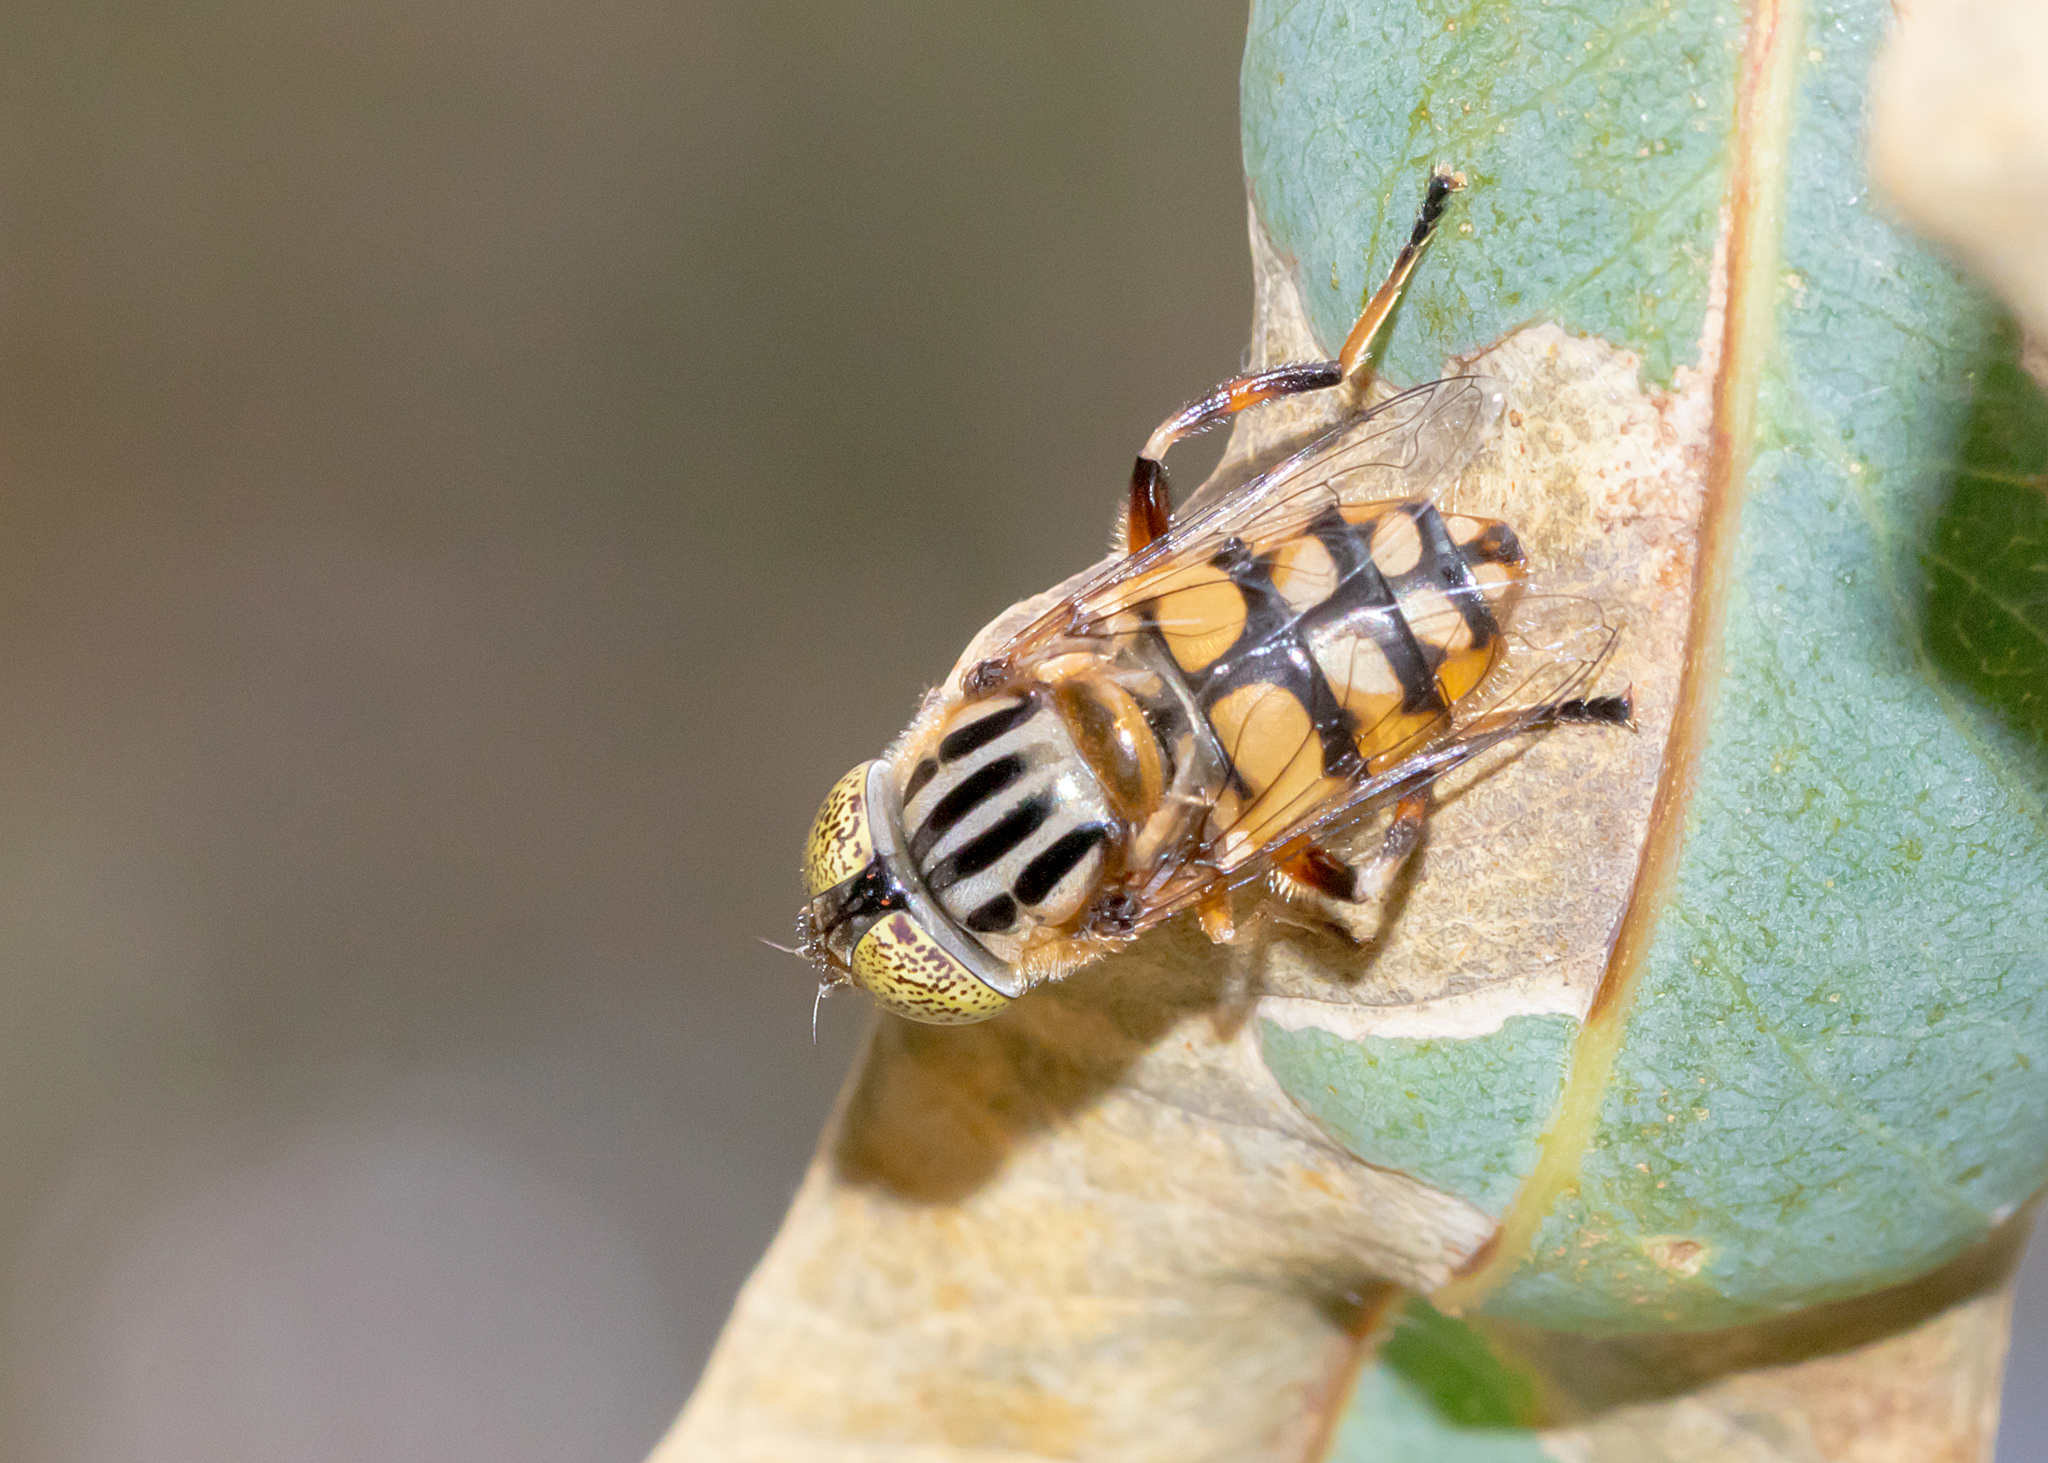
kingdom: Animalia
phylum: Arthropoda
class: Insecta
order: Diptera
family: Syrphidae
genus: Eristalinus
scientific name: Eristalinus punctulatus
